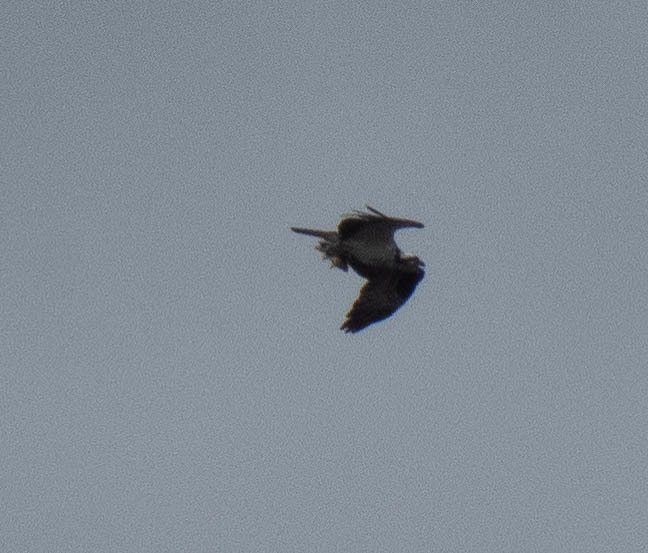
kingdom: Animalia
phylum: Chordata
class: Aves
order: Accipitriformes
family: Pandionidae
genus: Pandion
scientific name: Pandion haliaetus
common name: Osprey
